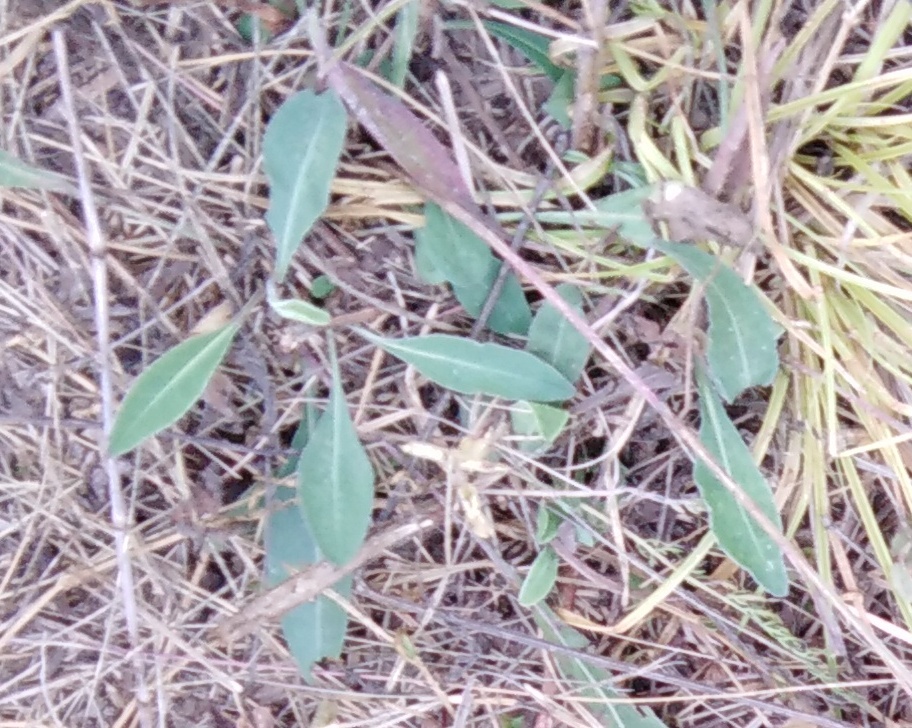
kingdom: Plantae
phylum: Tracheophyta
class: Magnoliopsida
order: Asterales
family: Asteraceae
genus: Pilosella
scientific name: Pilosella officinarum
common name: Mouse-ear hawkweed
